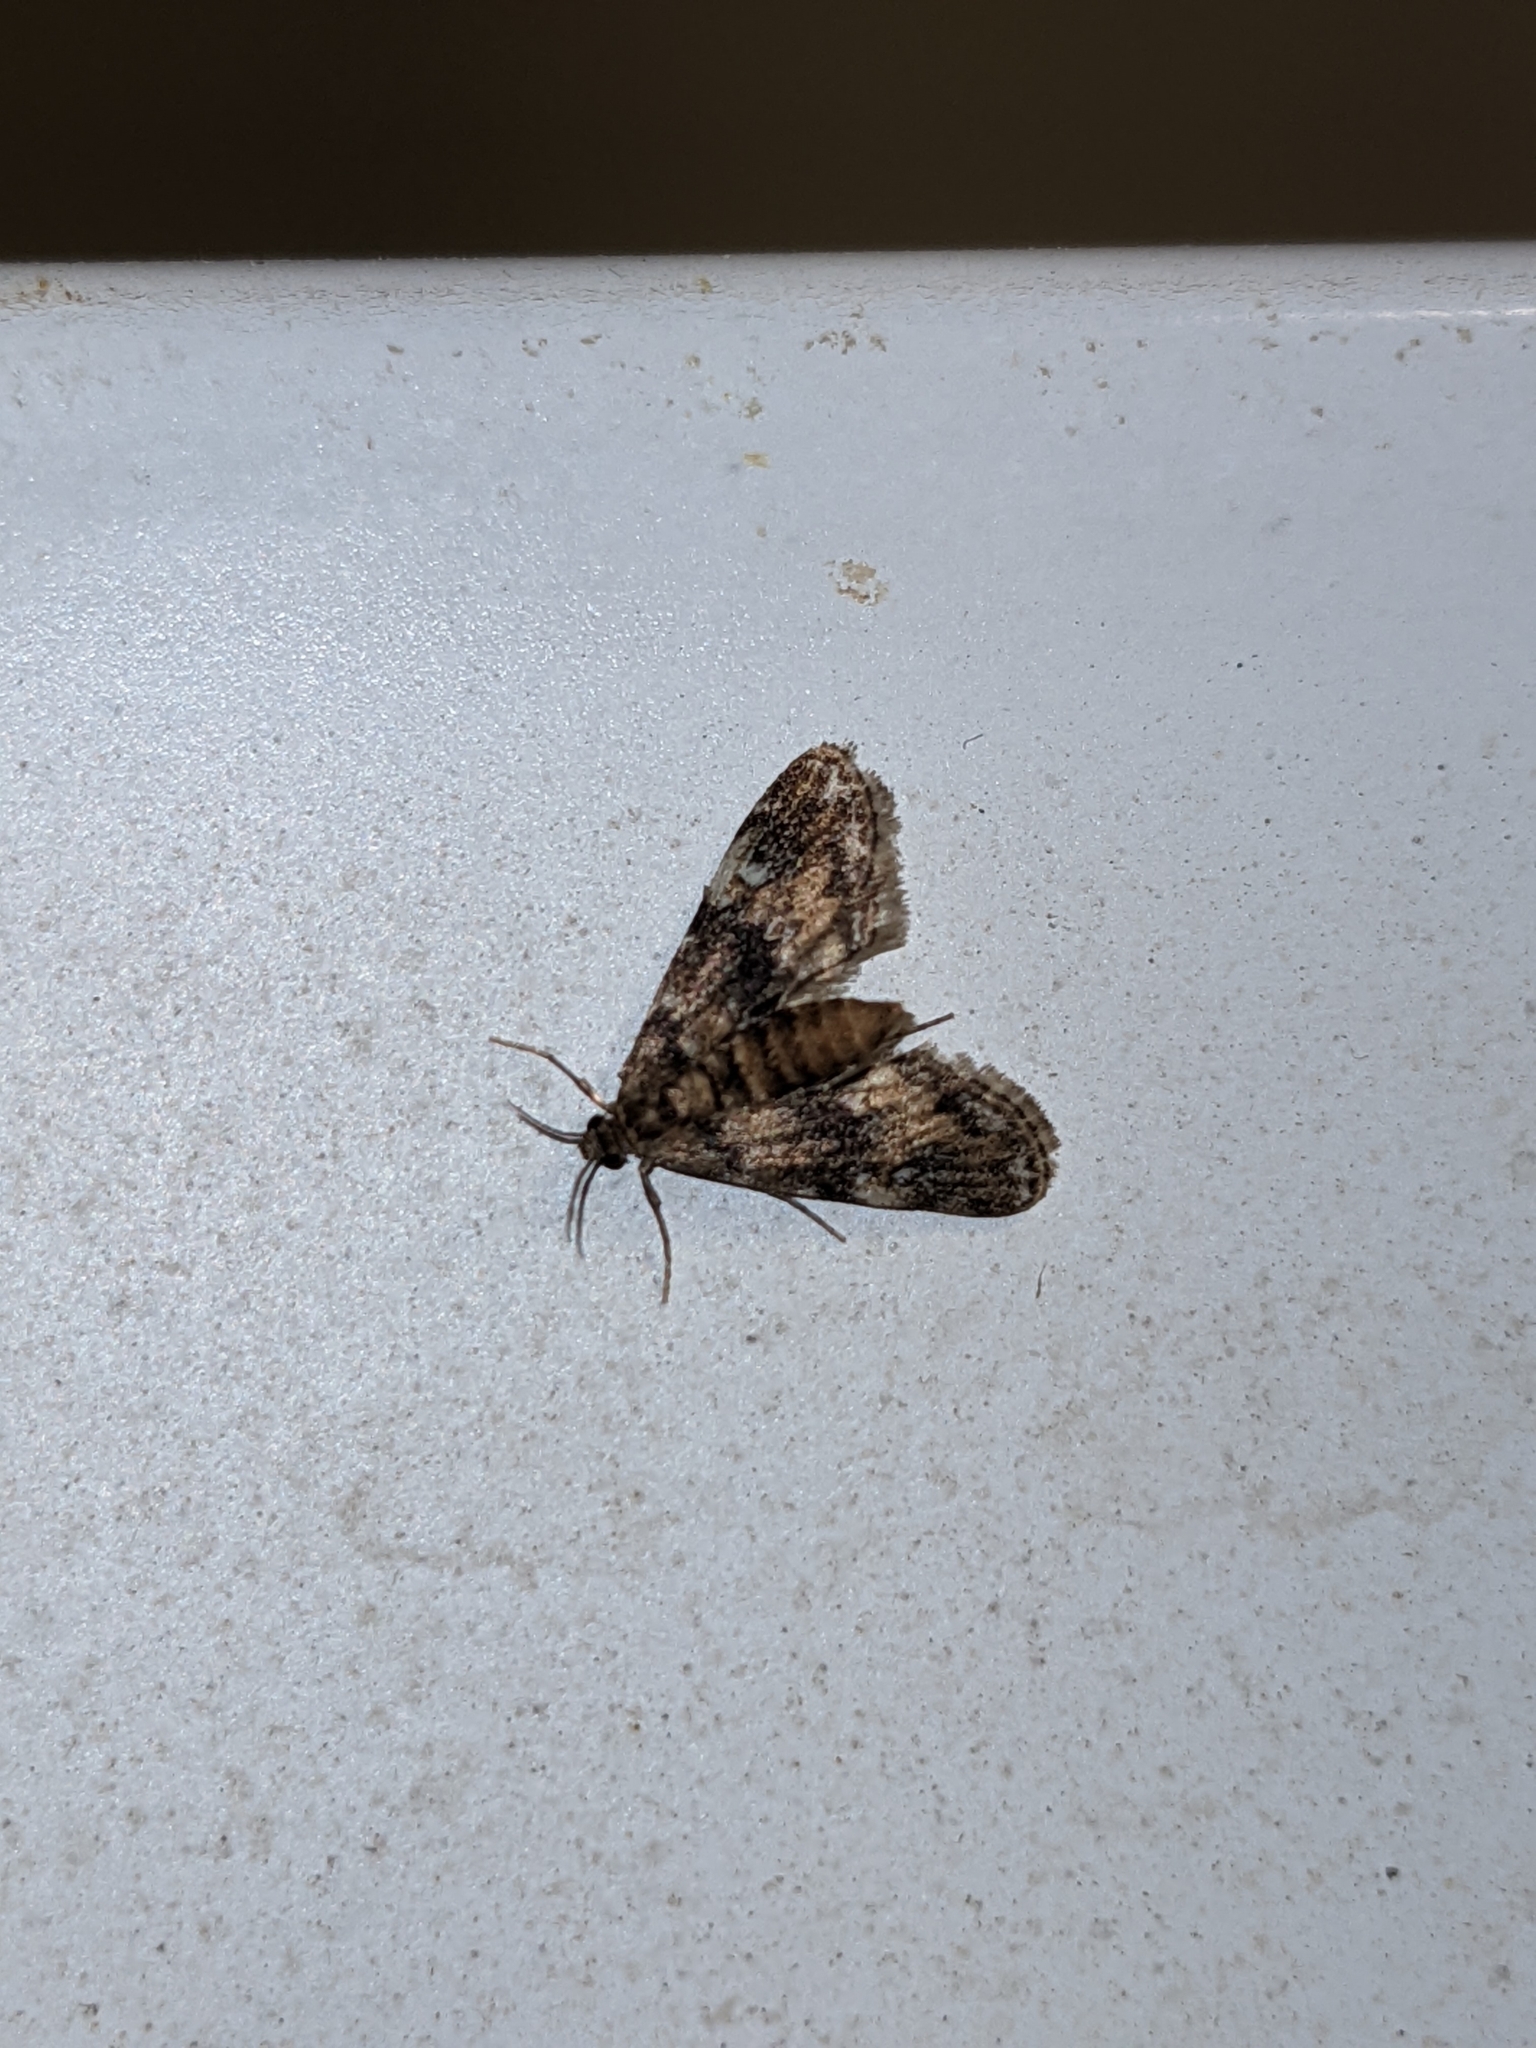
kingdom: Animalia
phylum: Arthropoda
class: Insecta
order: Lepidoptera
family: Crambidae
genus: Elophila
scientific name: Elophila obliteralis
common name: Waterlily leafcutter moth
